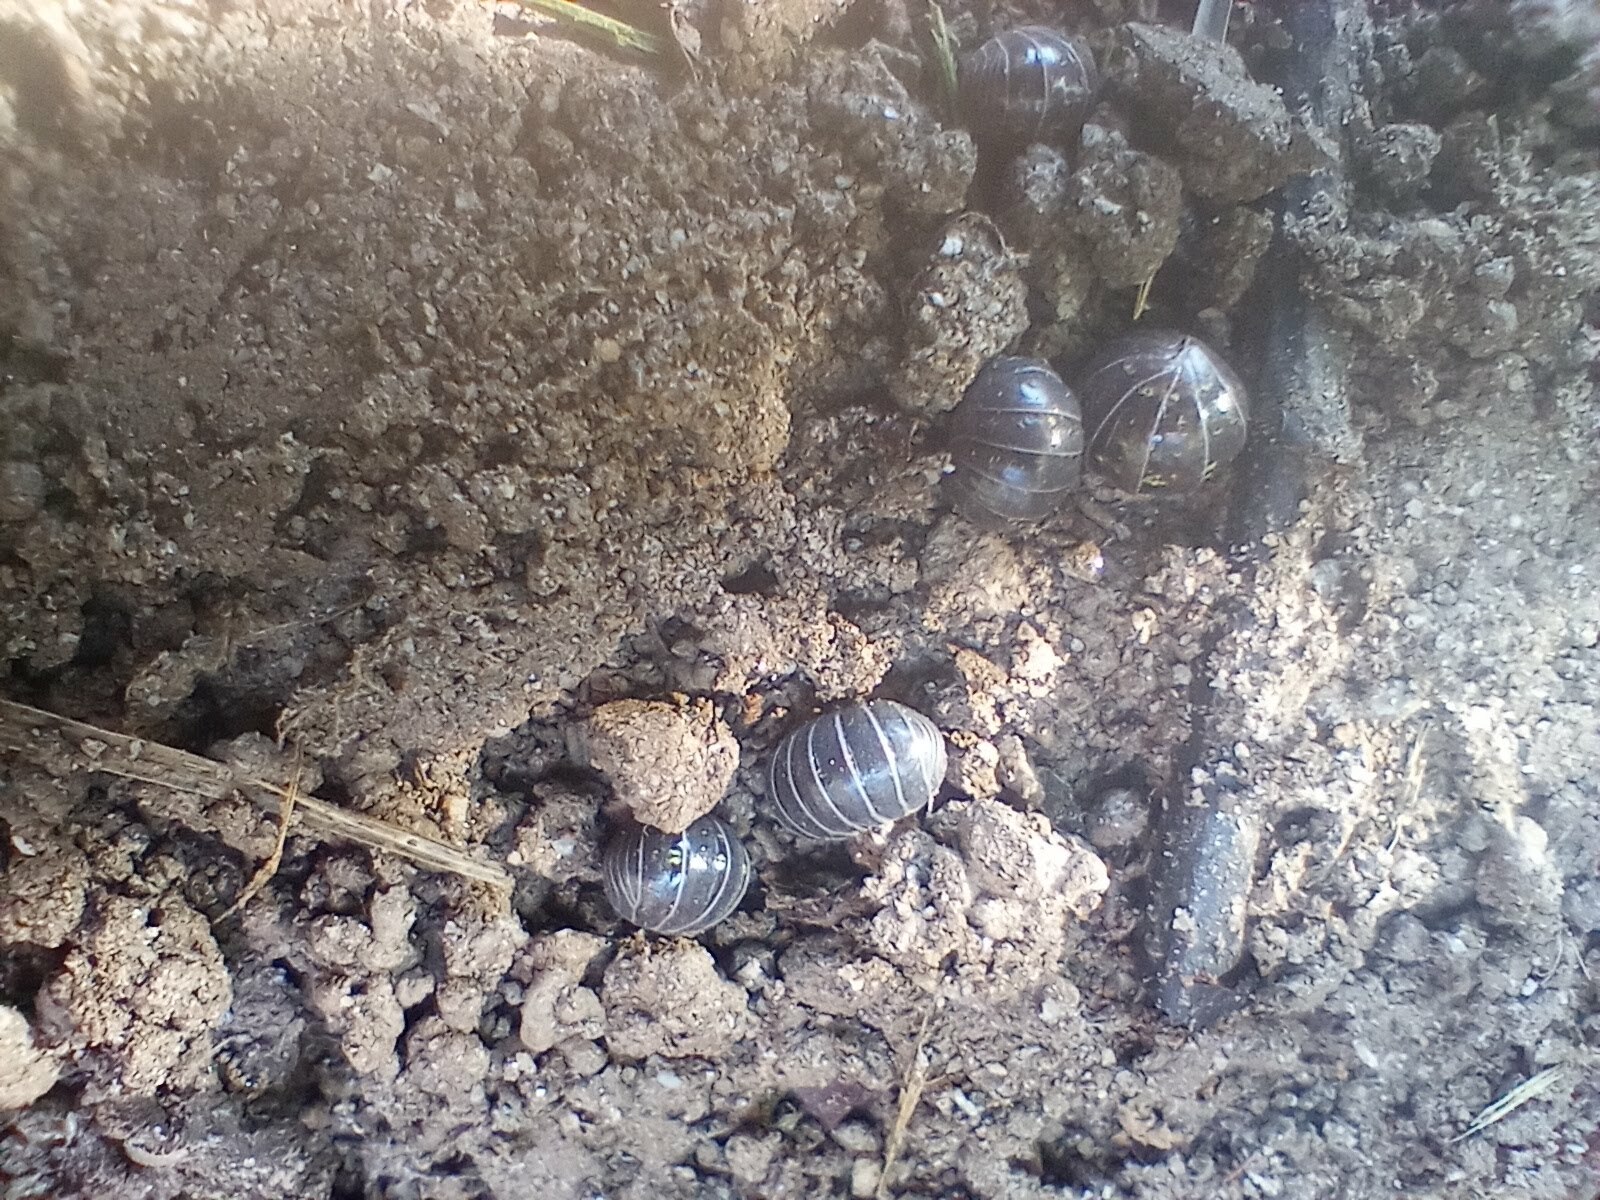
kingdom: Animalia
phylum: Arthropoda
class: Malacostraca
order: Isopoda
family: Armadillidiidae
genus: Armadillidium
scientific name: Armadillidium vulgare
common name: Common pill woodlouse
